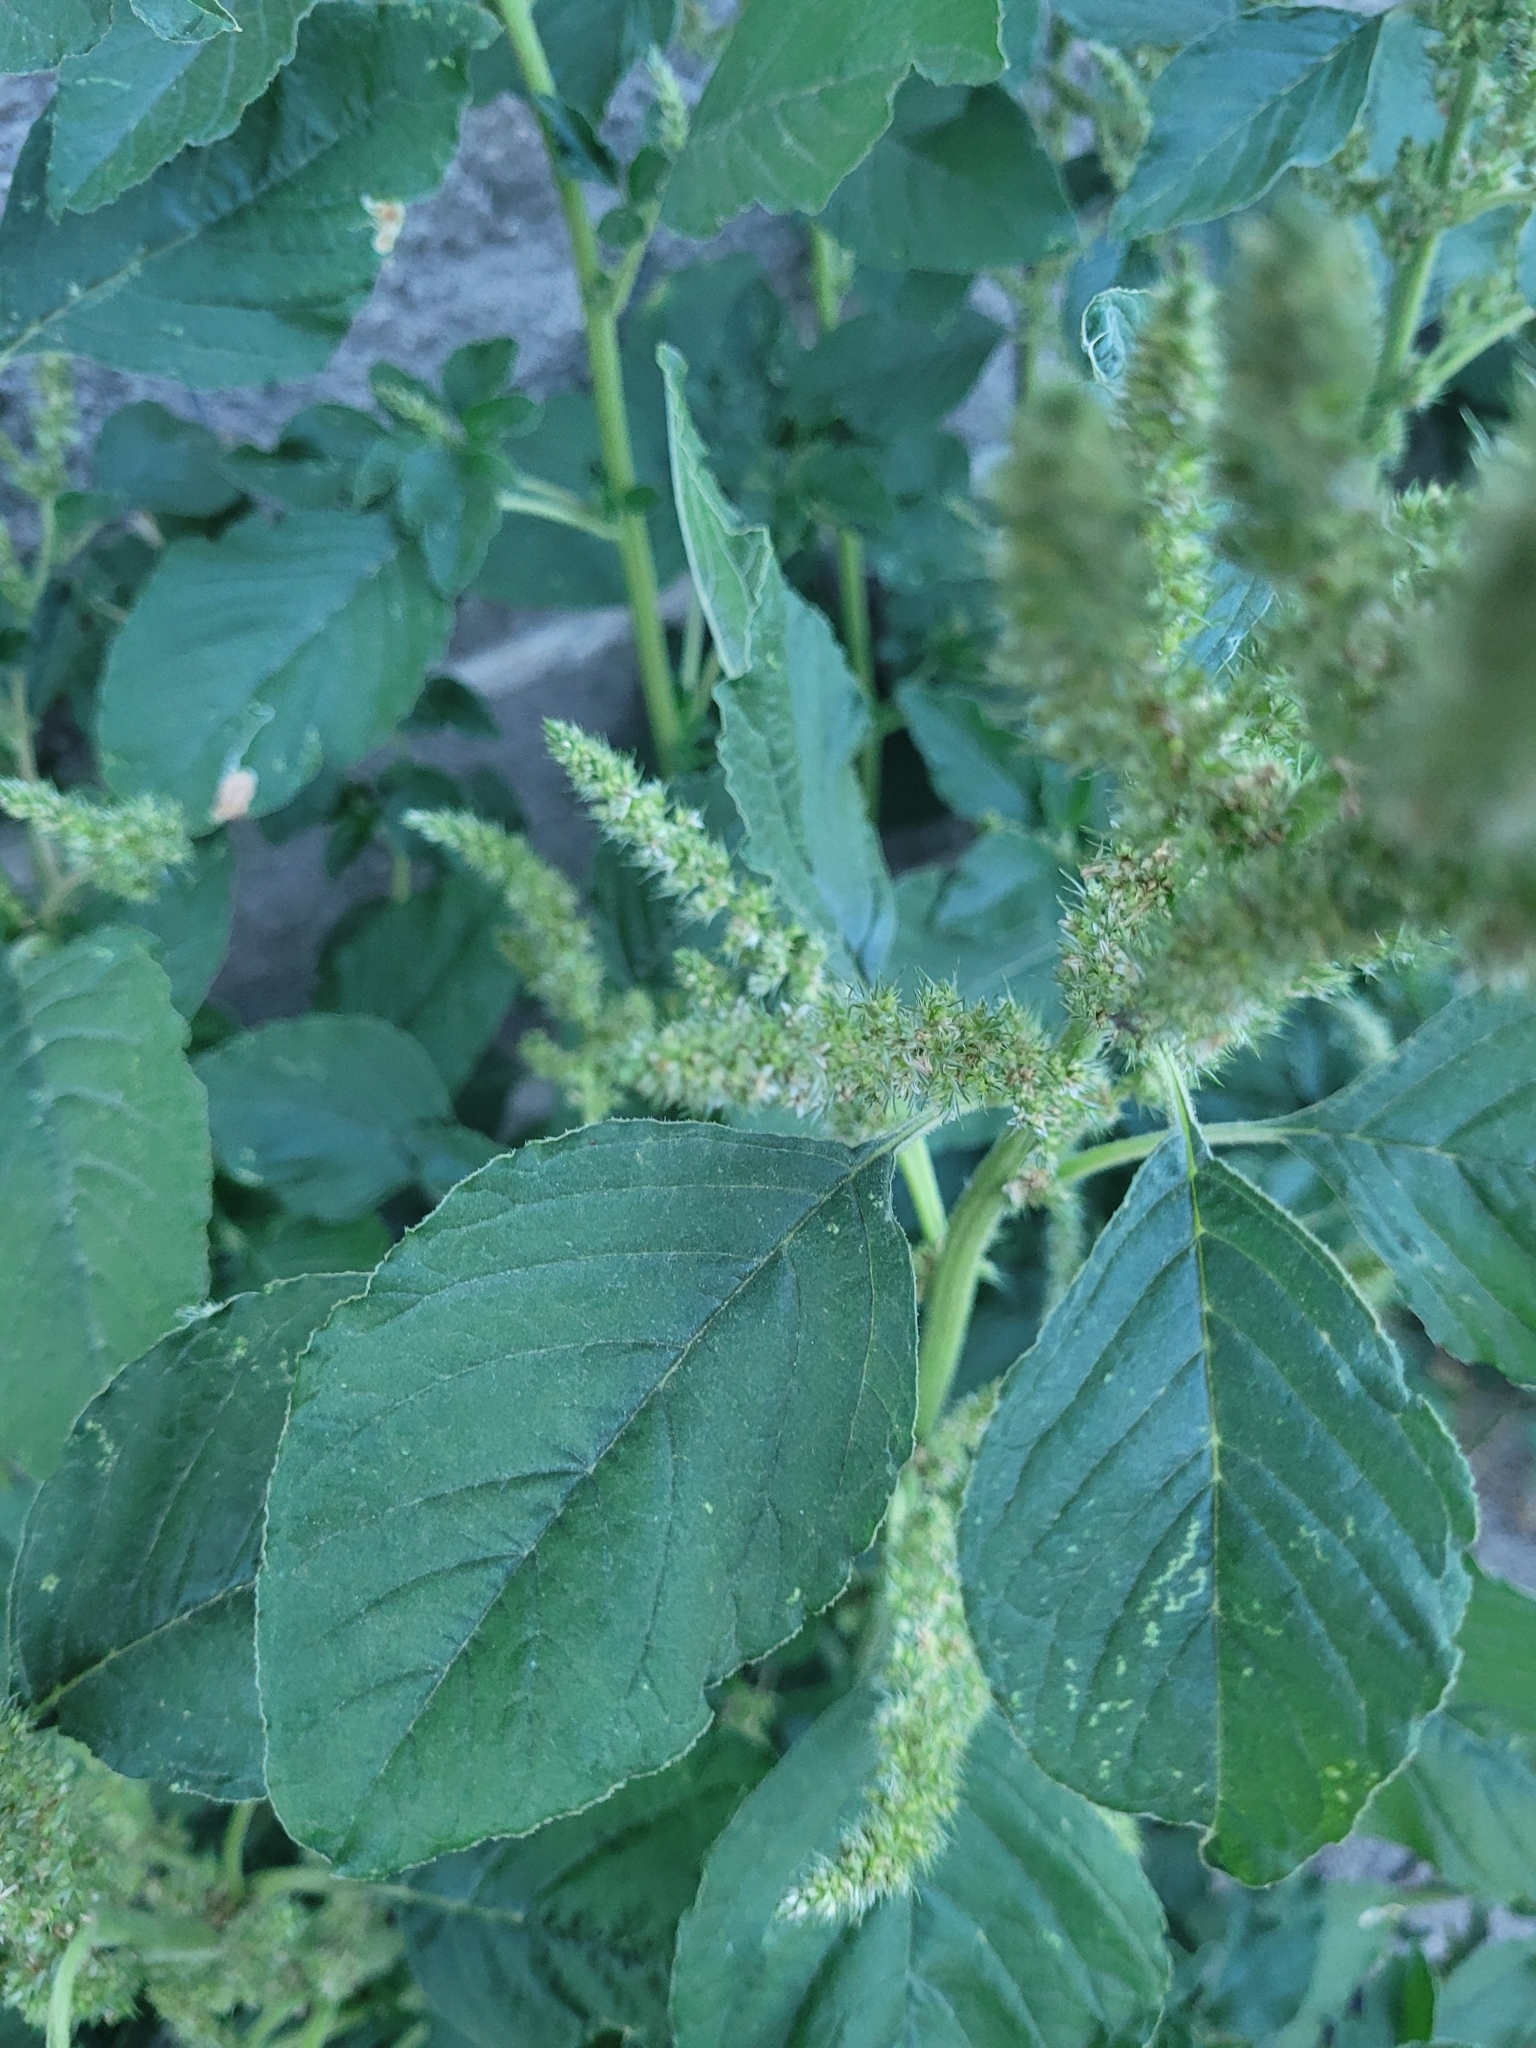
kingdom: Plantae
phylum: Tracheophyta
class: Magnoliopsida
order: Caryophyllales
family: Amaranthaceae
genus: Amaranthus
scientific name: Amaranthus retroflexus
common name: Redroot amaranth
